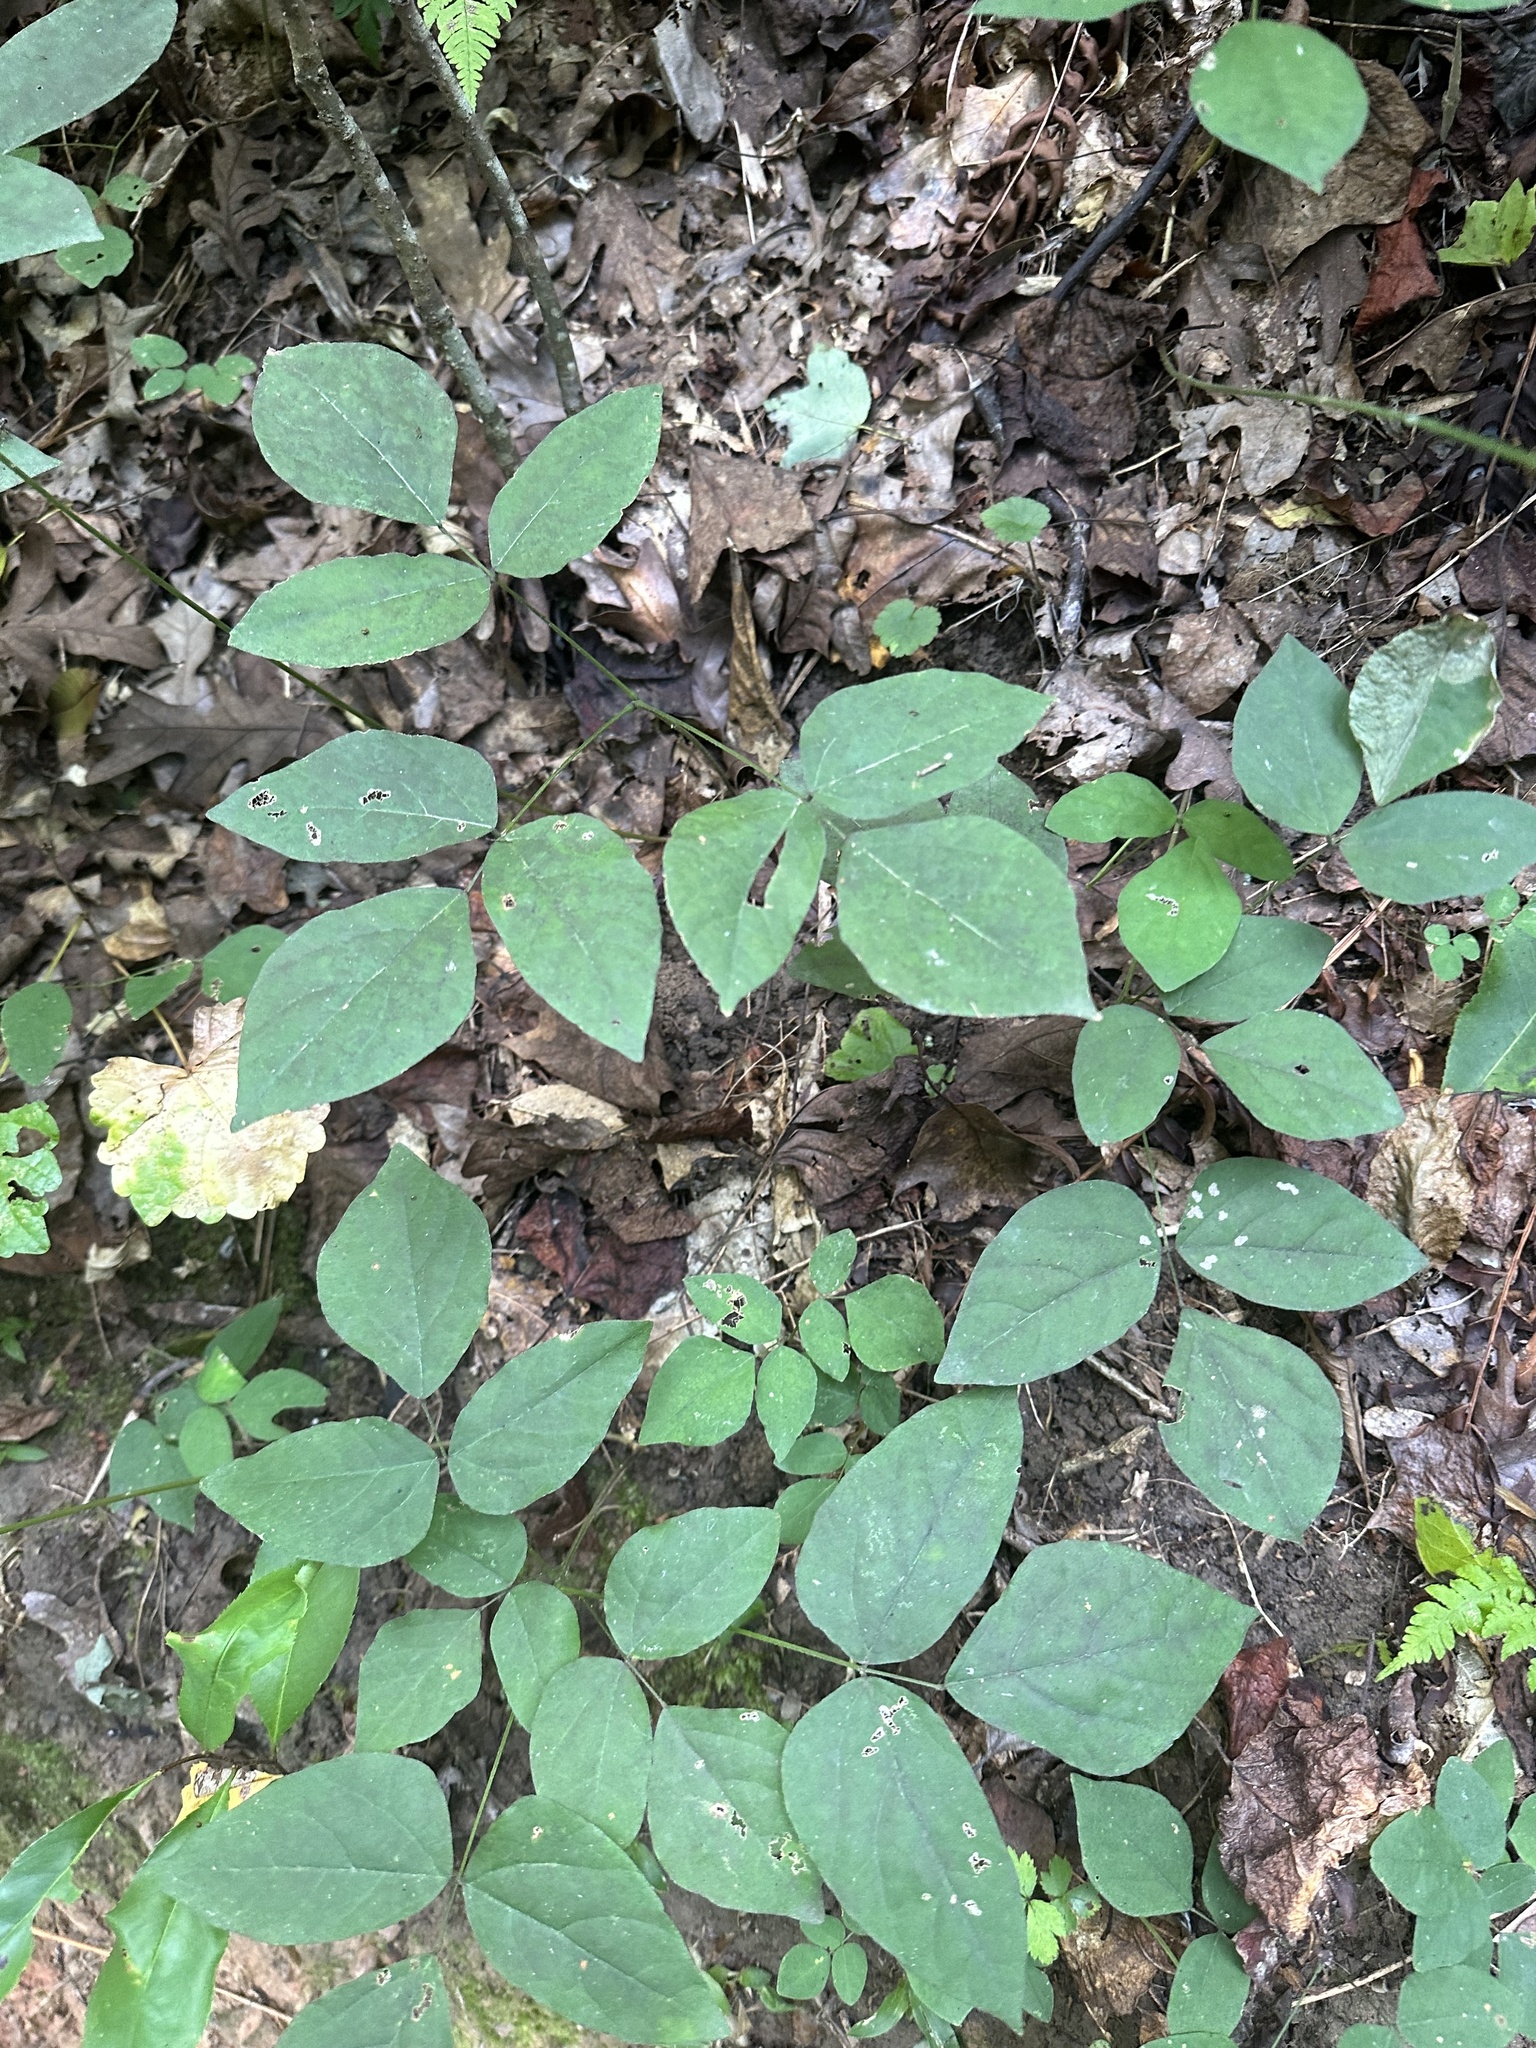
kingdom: Plantae
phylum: Tracheophyta
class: Magnoliopsida
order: Fabales
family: Fabaceae
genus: Hylodesmum
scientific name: Hylodesmum nudiflorum
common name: Bare-stemmed tick-trefoil
